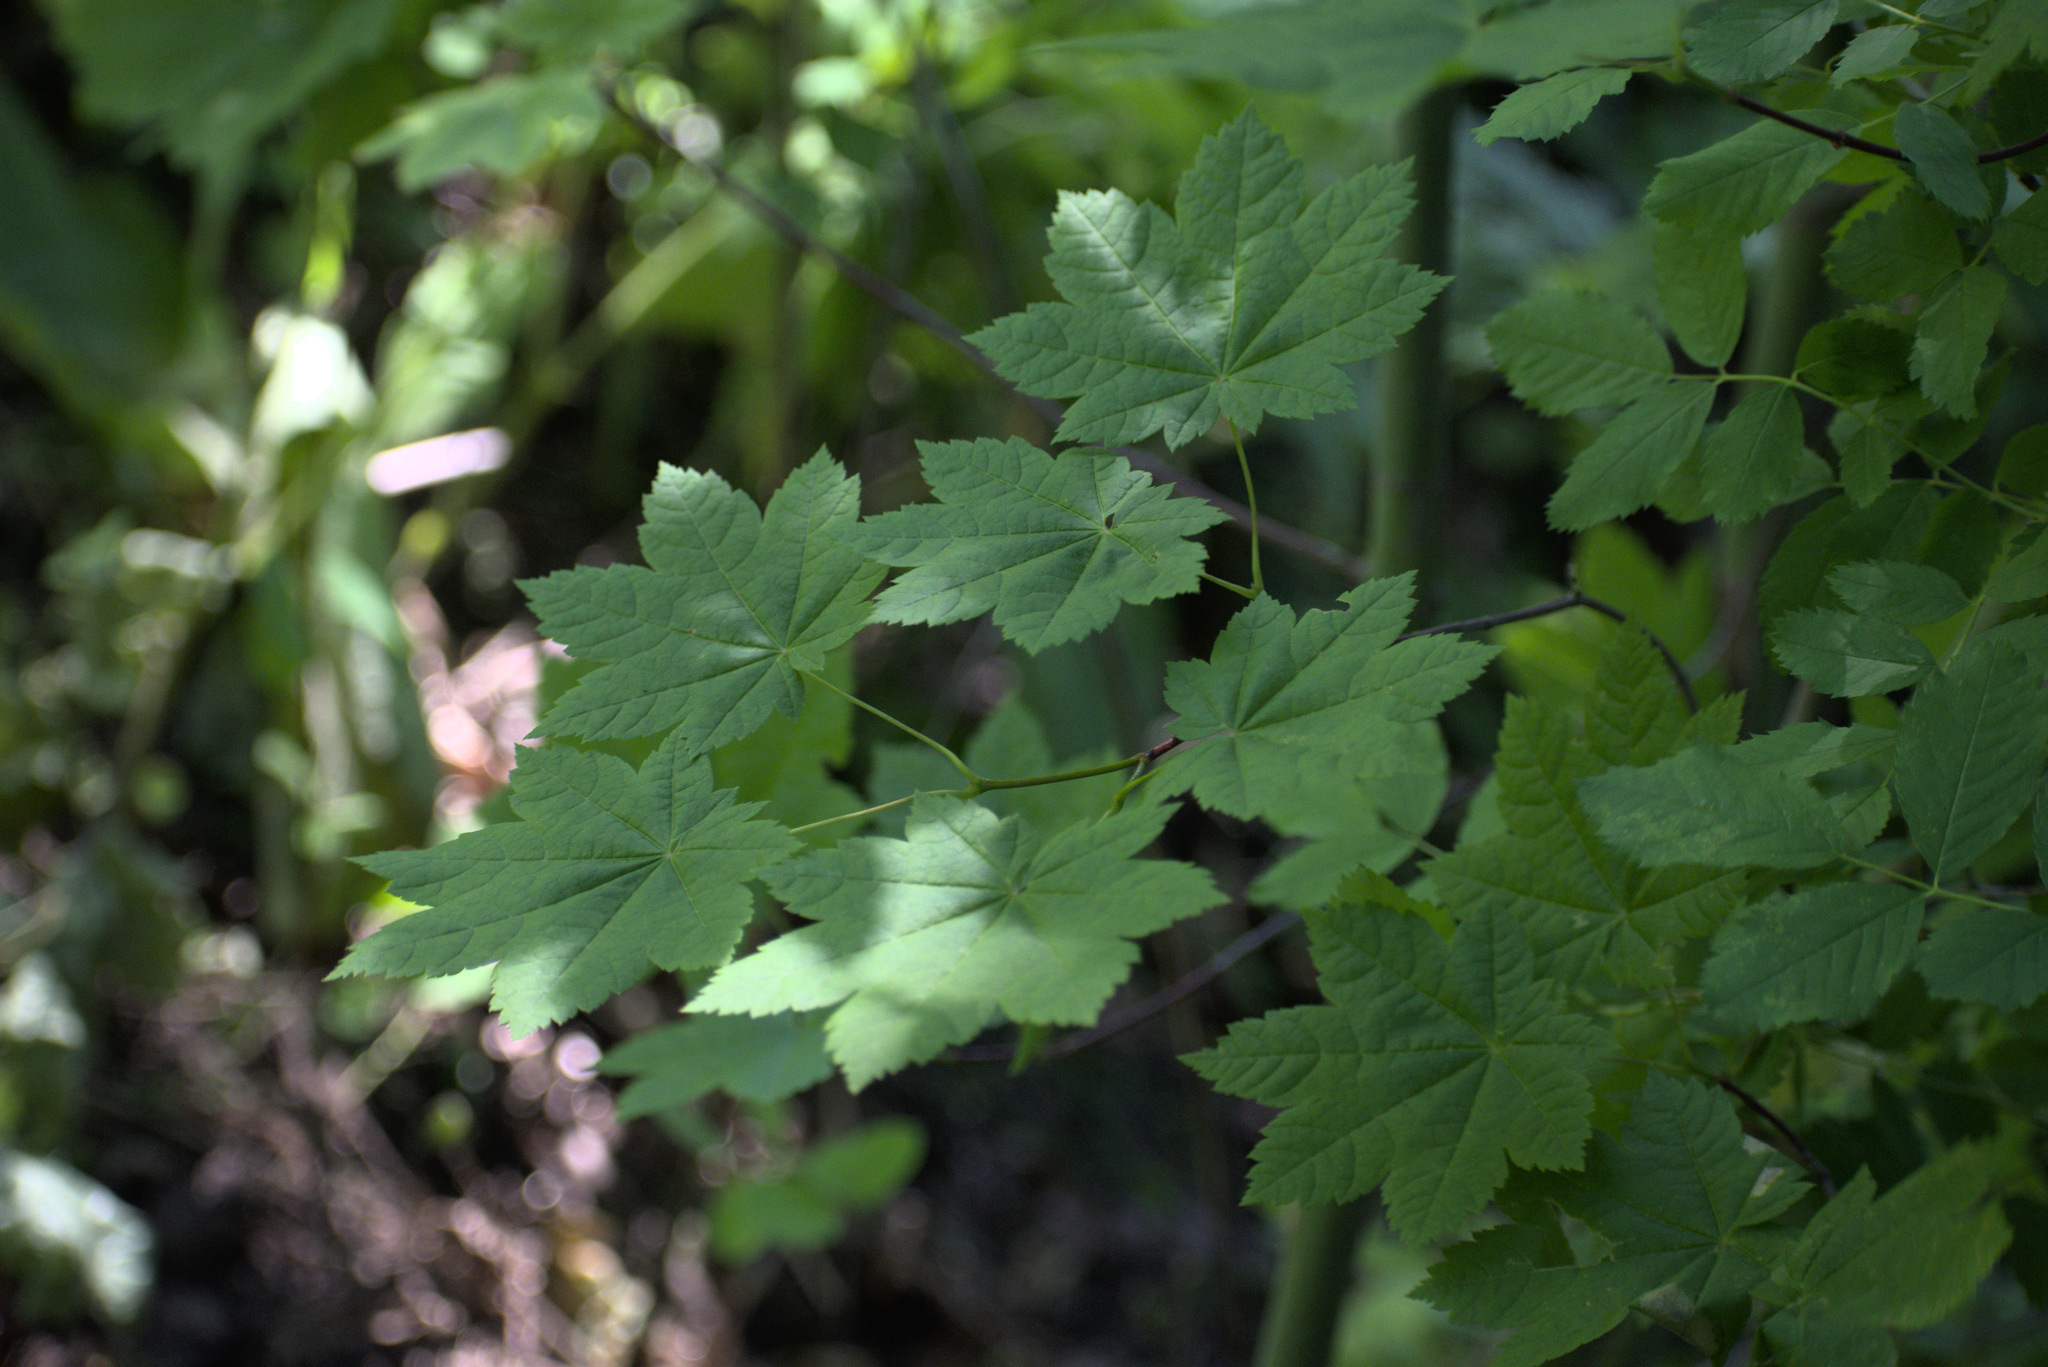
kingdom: Plantae
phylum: Tracheophyta
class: Magnoliopsida
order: Sapindales
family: Sapindaceae
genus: Acer
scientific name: Acer circinatum
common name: Vine maple
